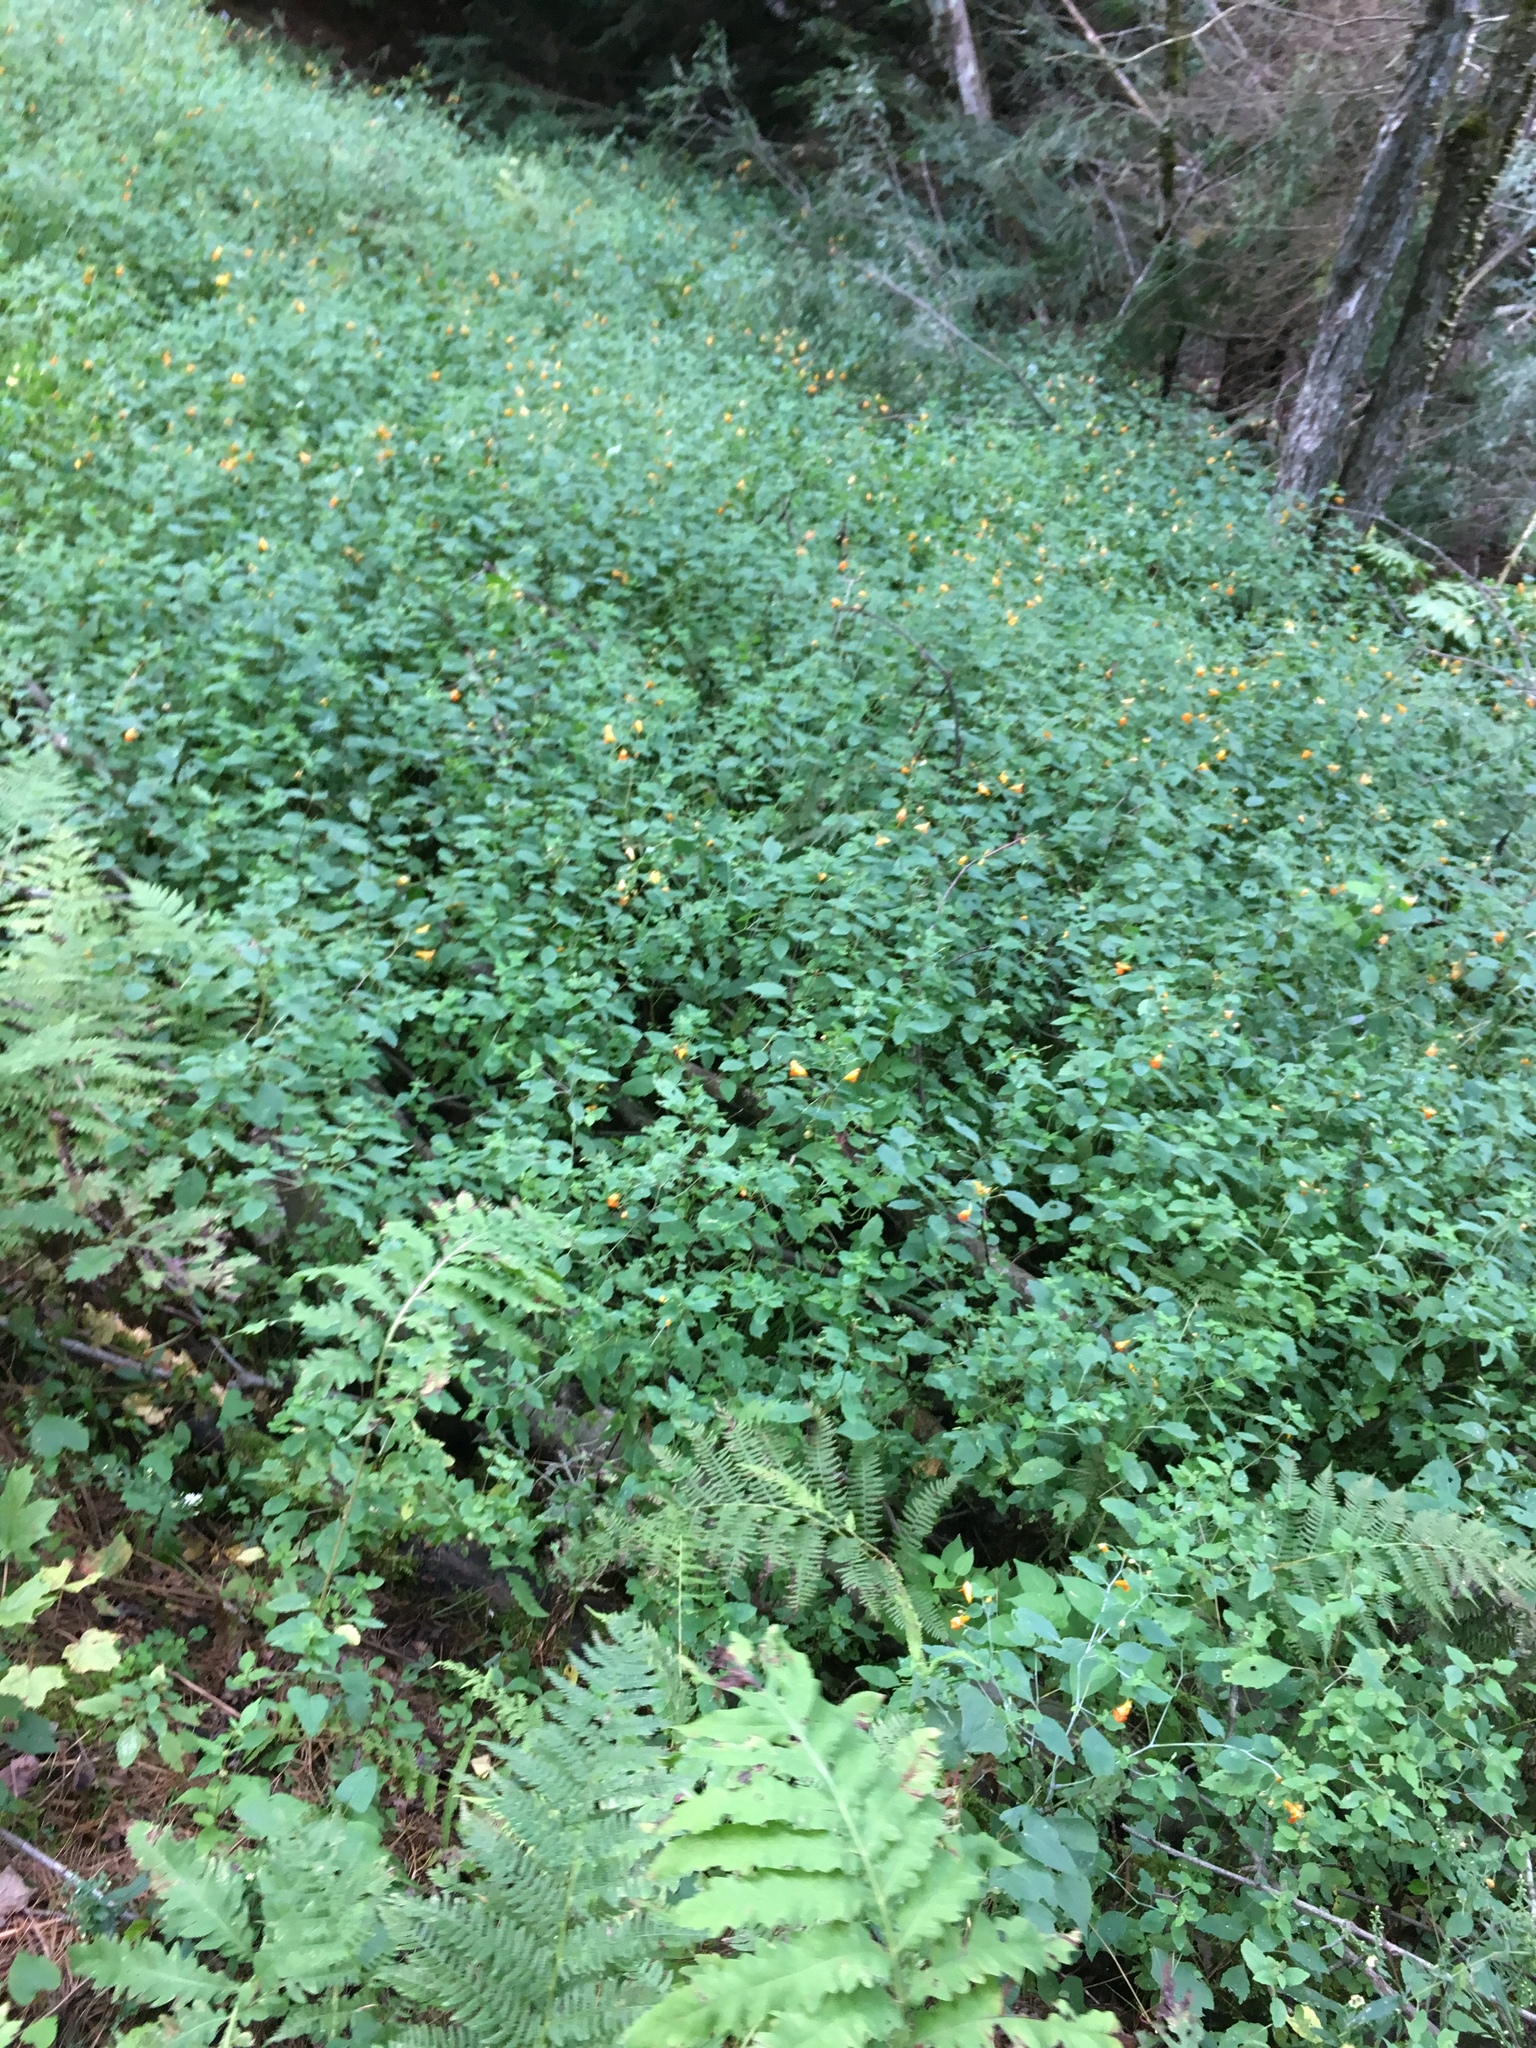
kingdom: Plantae
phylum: Tracheophyta
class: Magnoliopsida
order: Ericales
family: Balsaminaceae
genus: Impatiens
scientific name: Impatiens capensis
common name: Orange balsam
